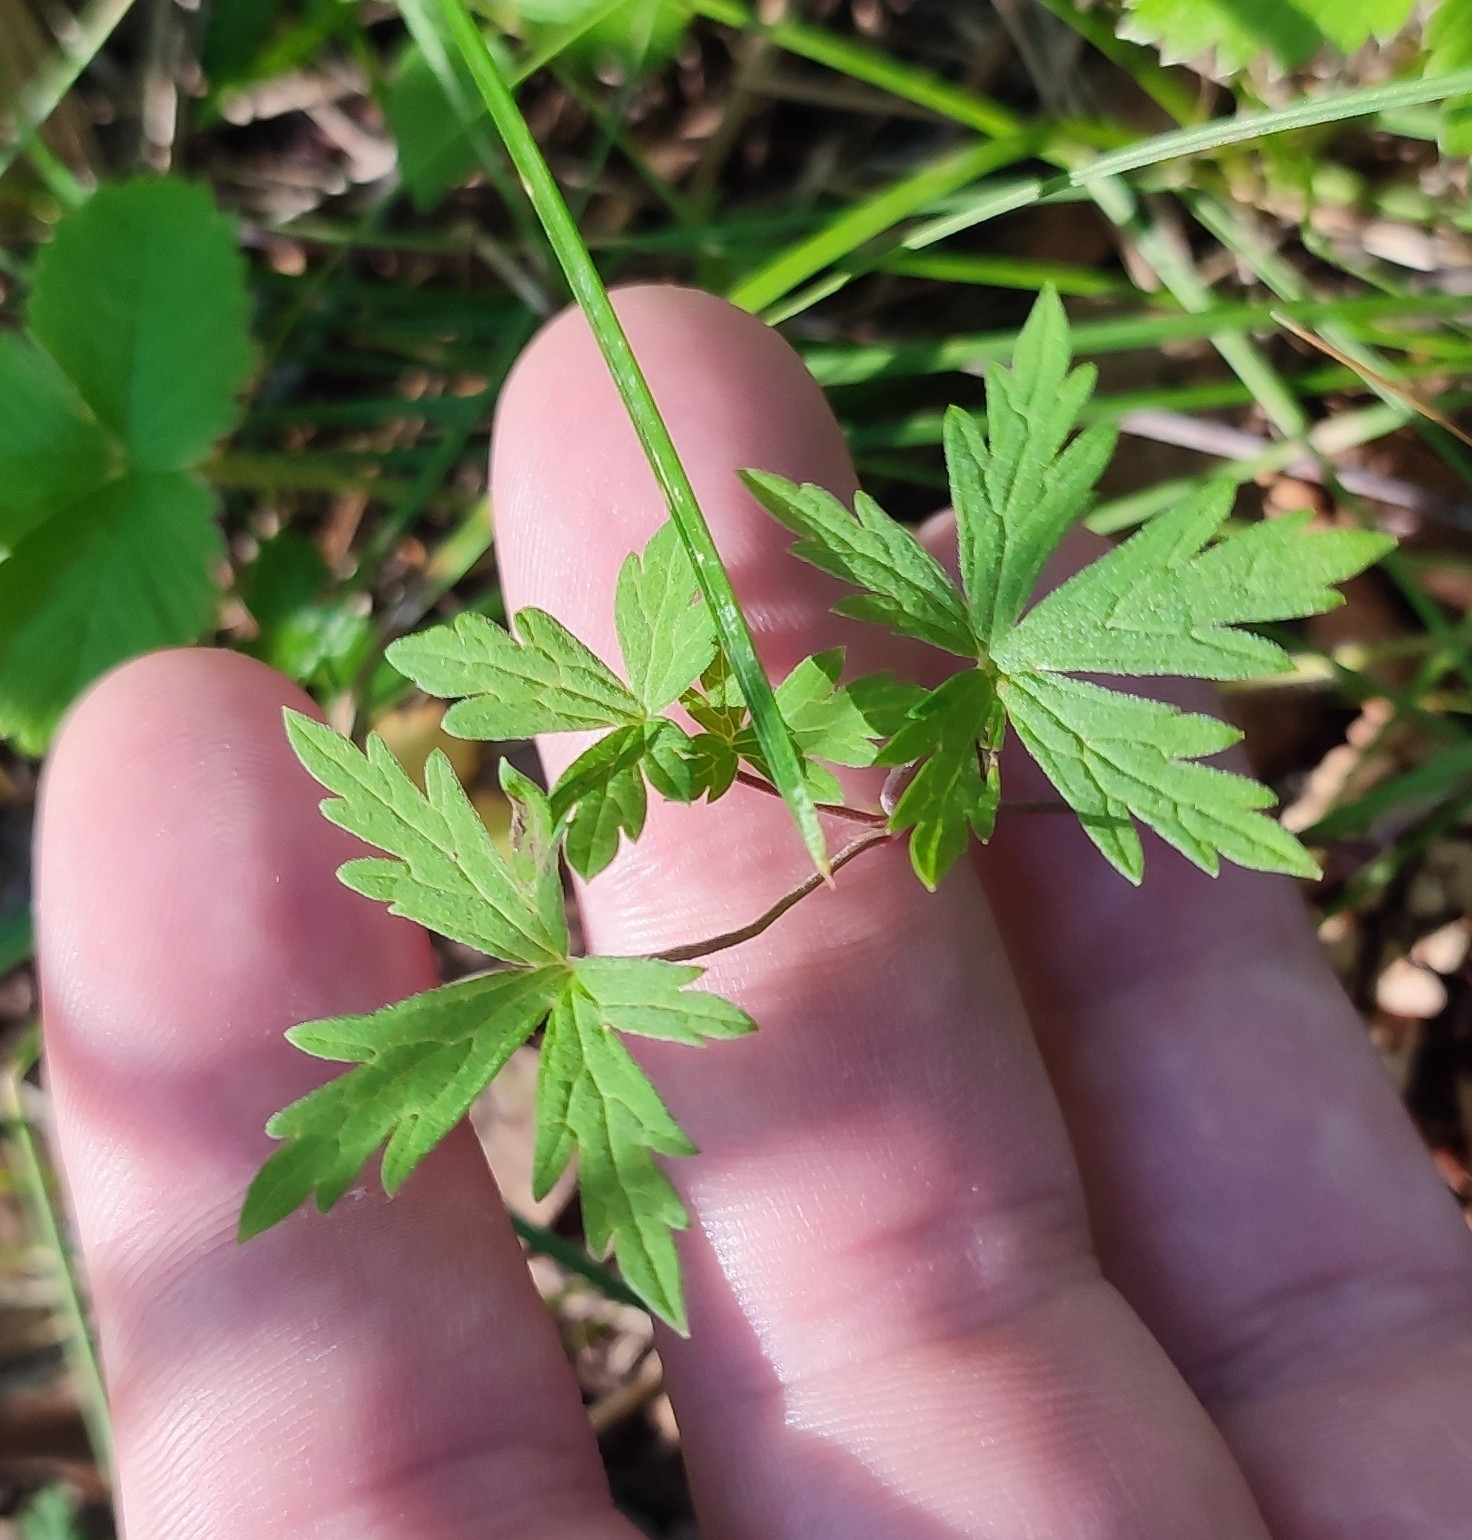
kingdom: Plantae
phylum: Tracheophyta
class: Magnoliopsida
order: Geraniales
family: Geraniaceae
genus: Geranium
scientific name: Geranium sibiricum
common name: Siberian crane's-bill
